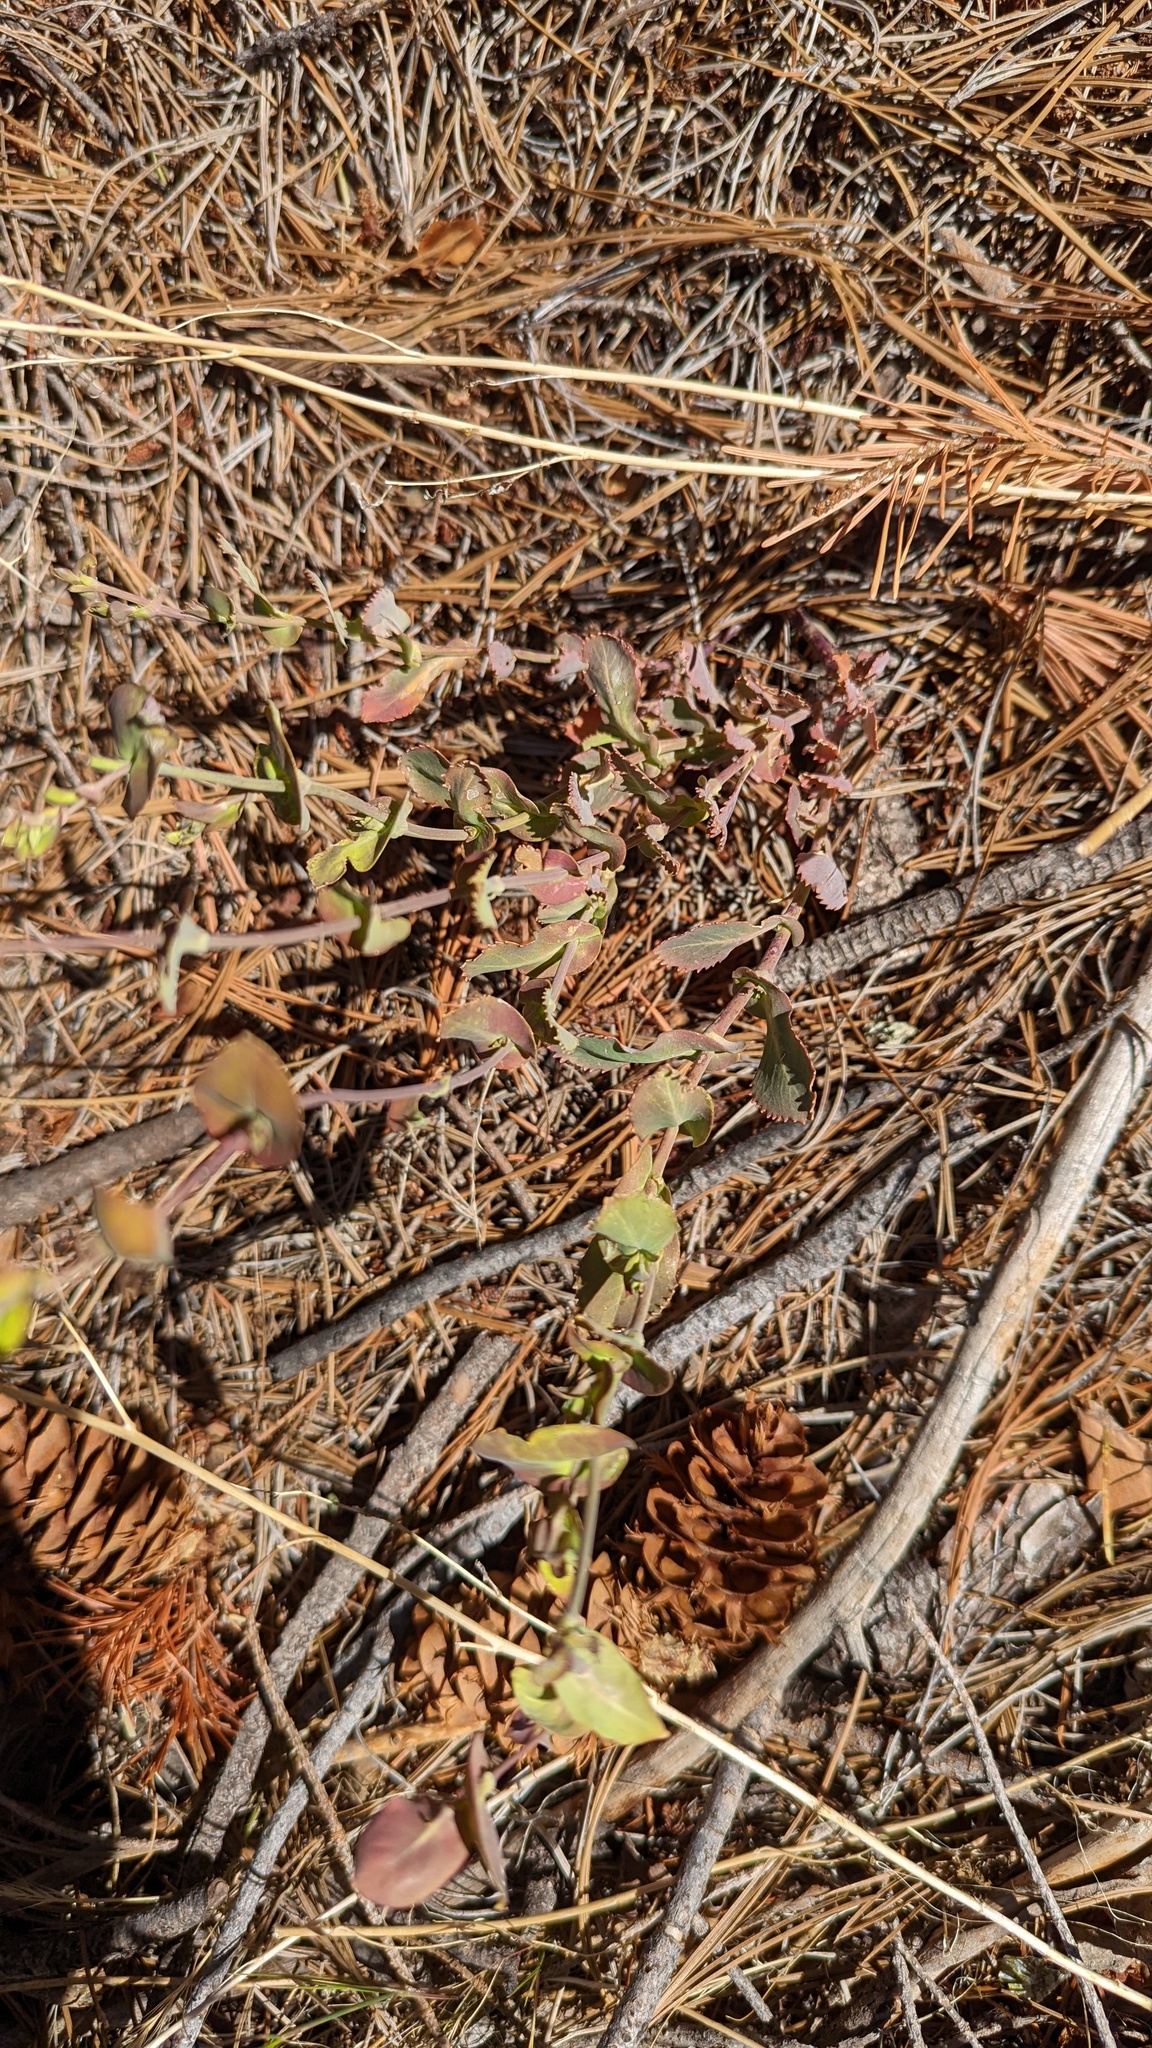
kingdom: Plantae
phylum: Tracheophyta
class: Magnoliopsida
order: Brassicales
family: Brassicaceae
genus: Streptanthus
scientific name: Streptanthus tortuosus
